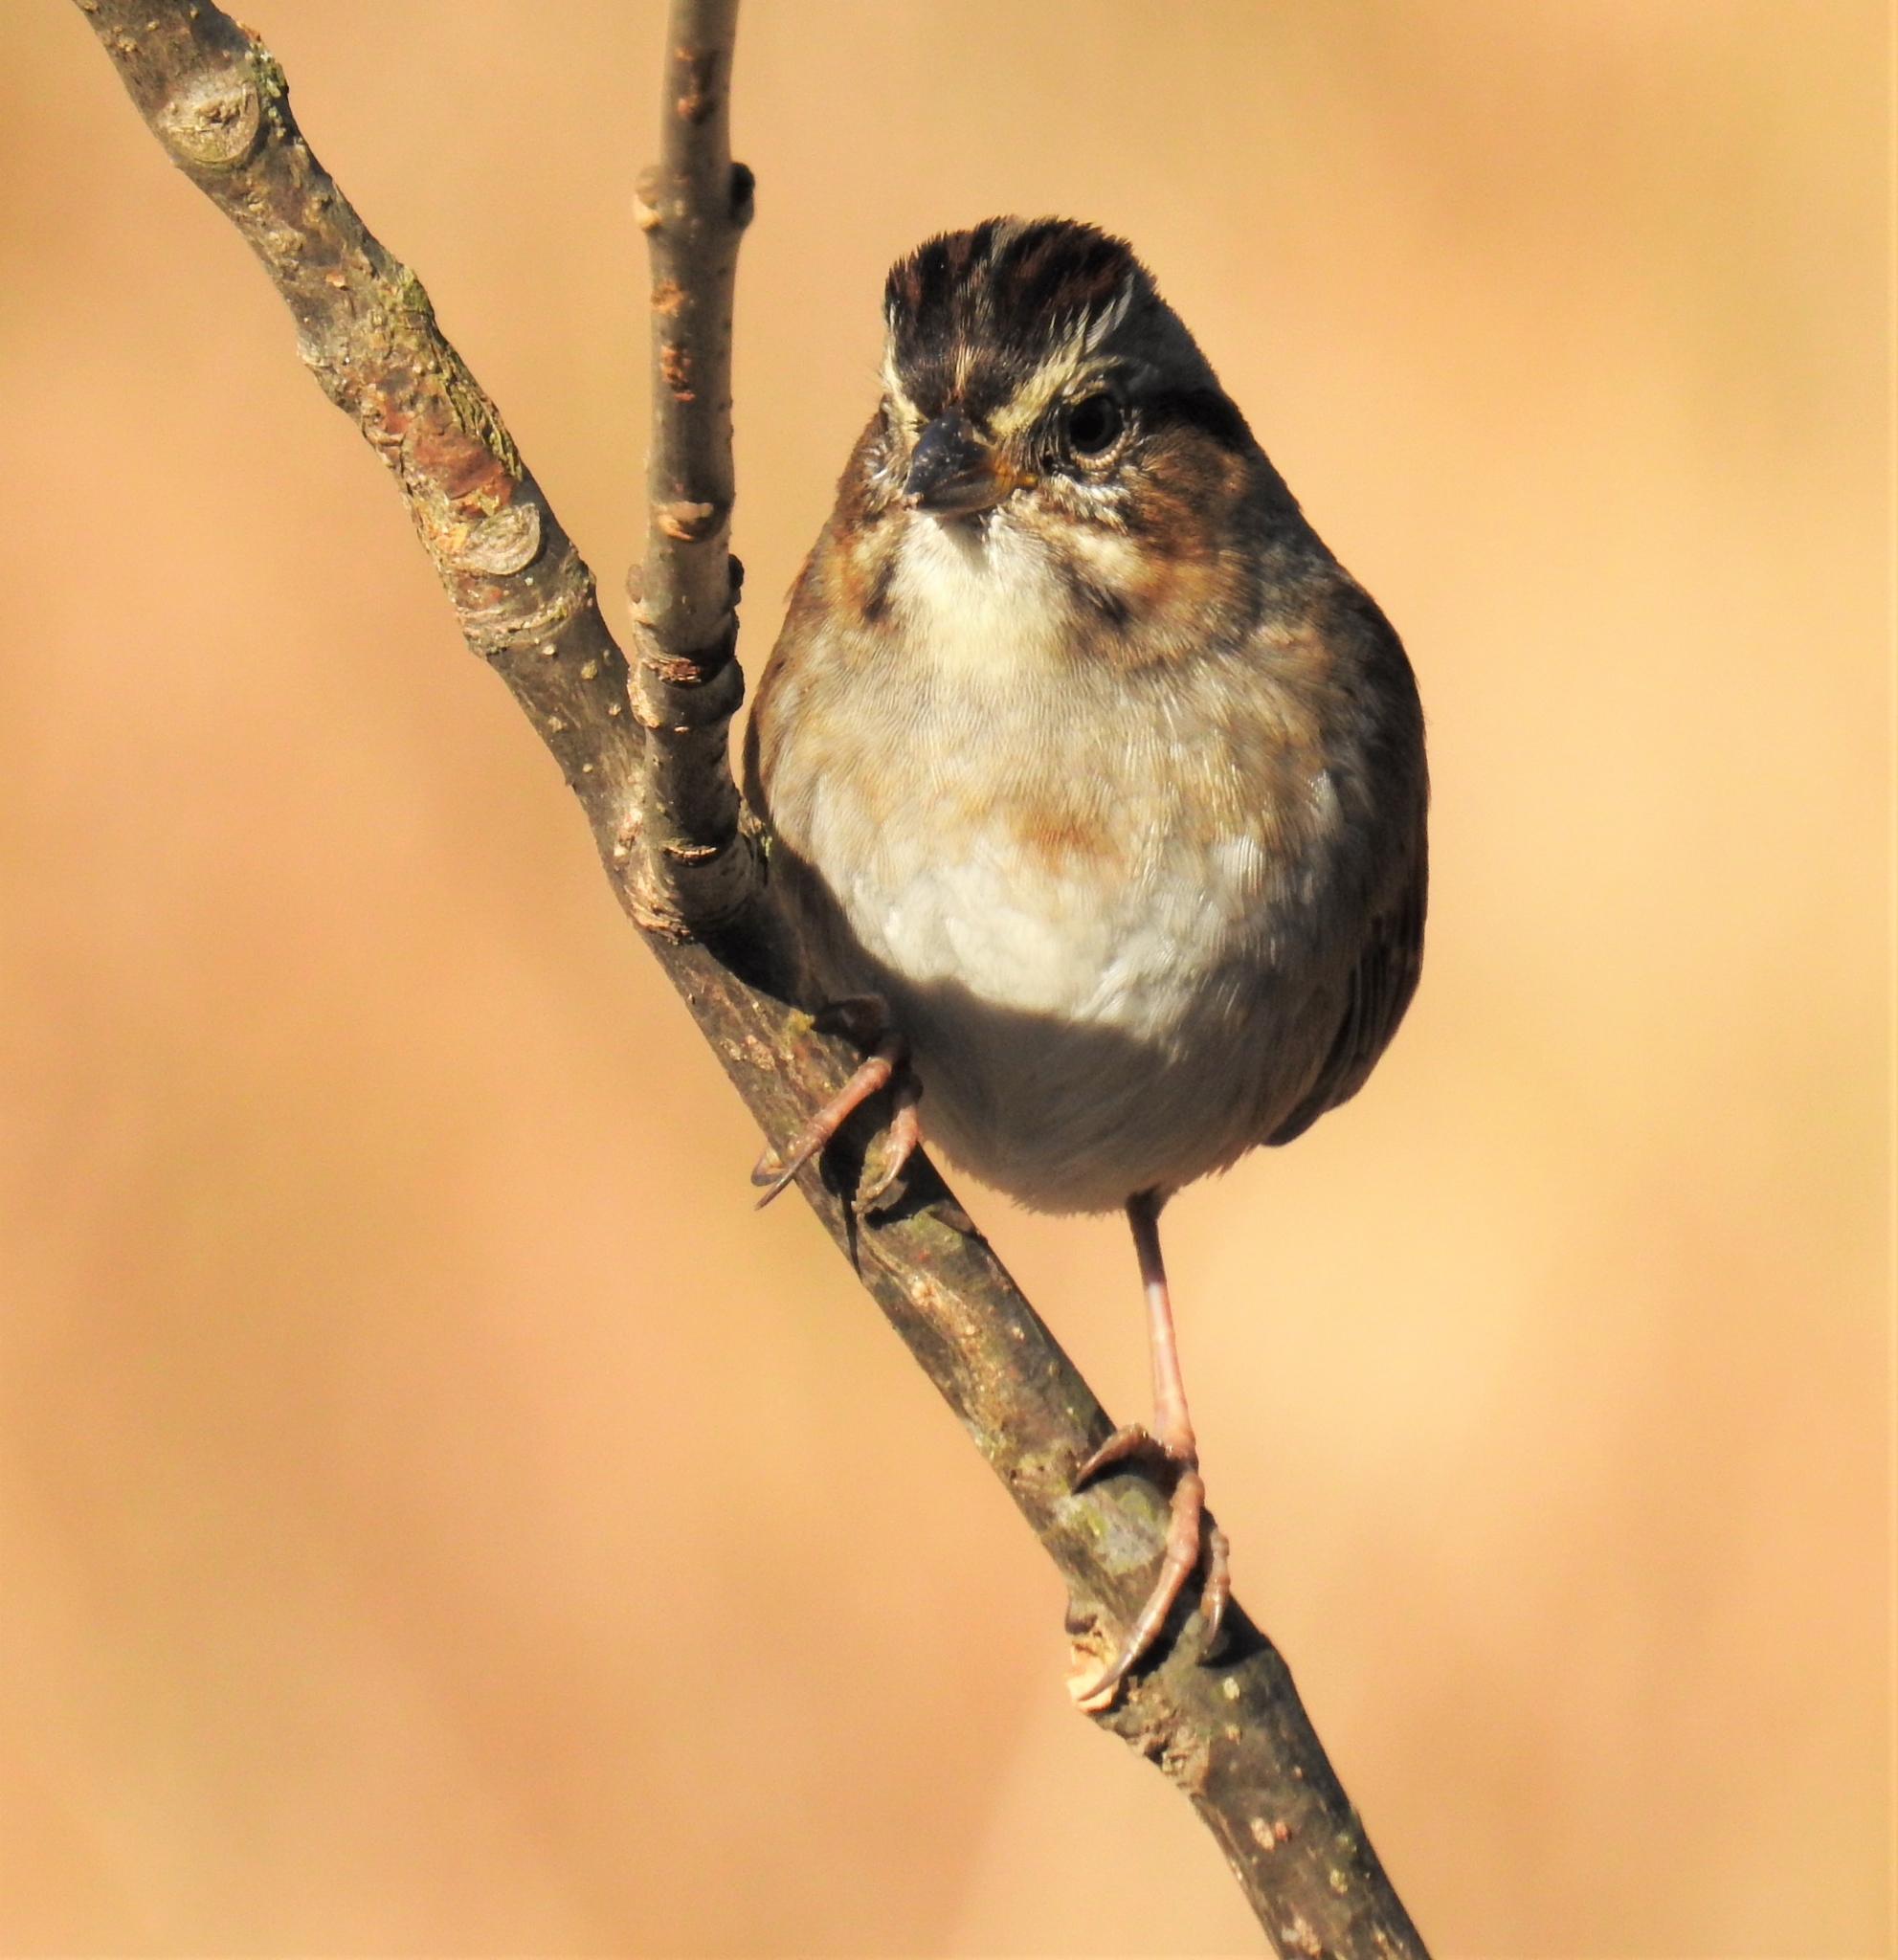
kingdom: Animalia
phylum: Chordata
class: Aves
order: Passeriformes
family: Passerellidae
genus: Melospiza
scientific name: Melospiza georgiana
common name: Swamp sparrow
